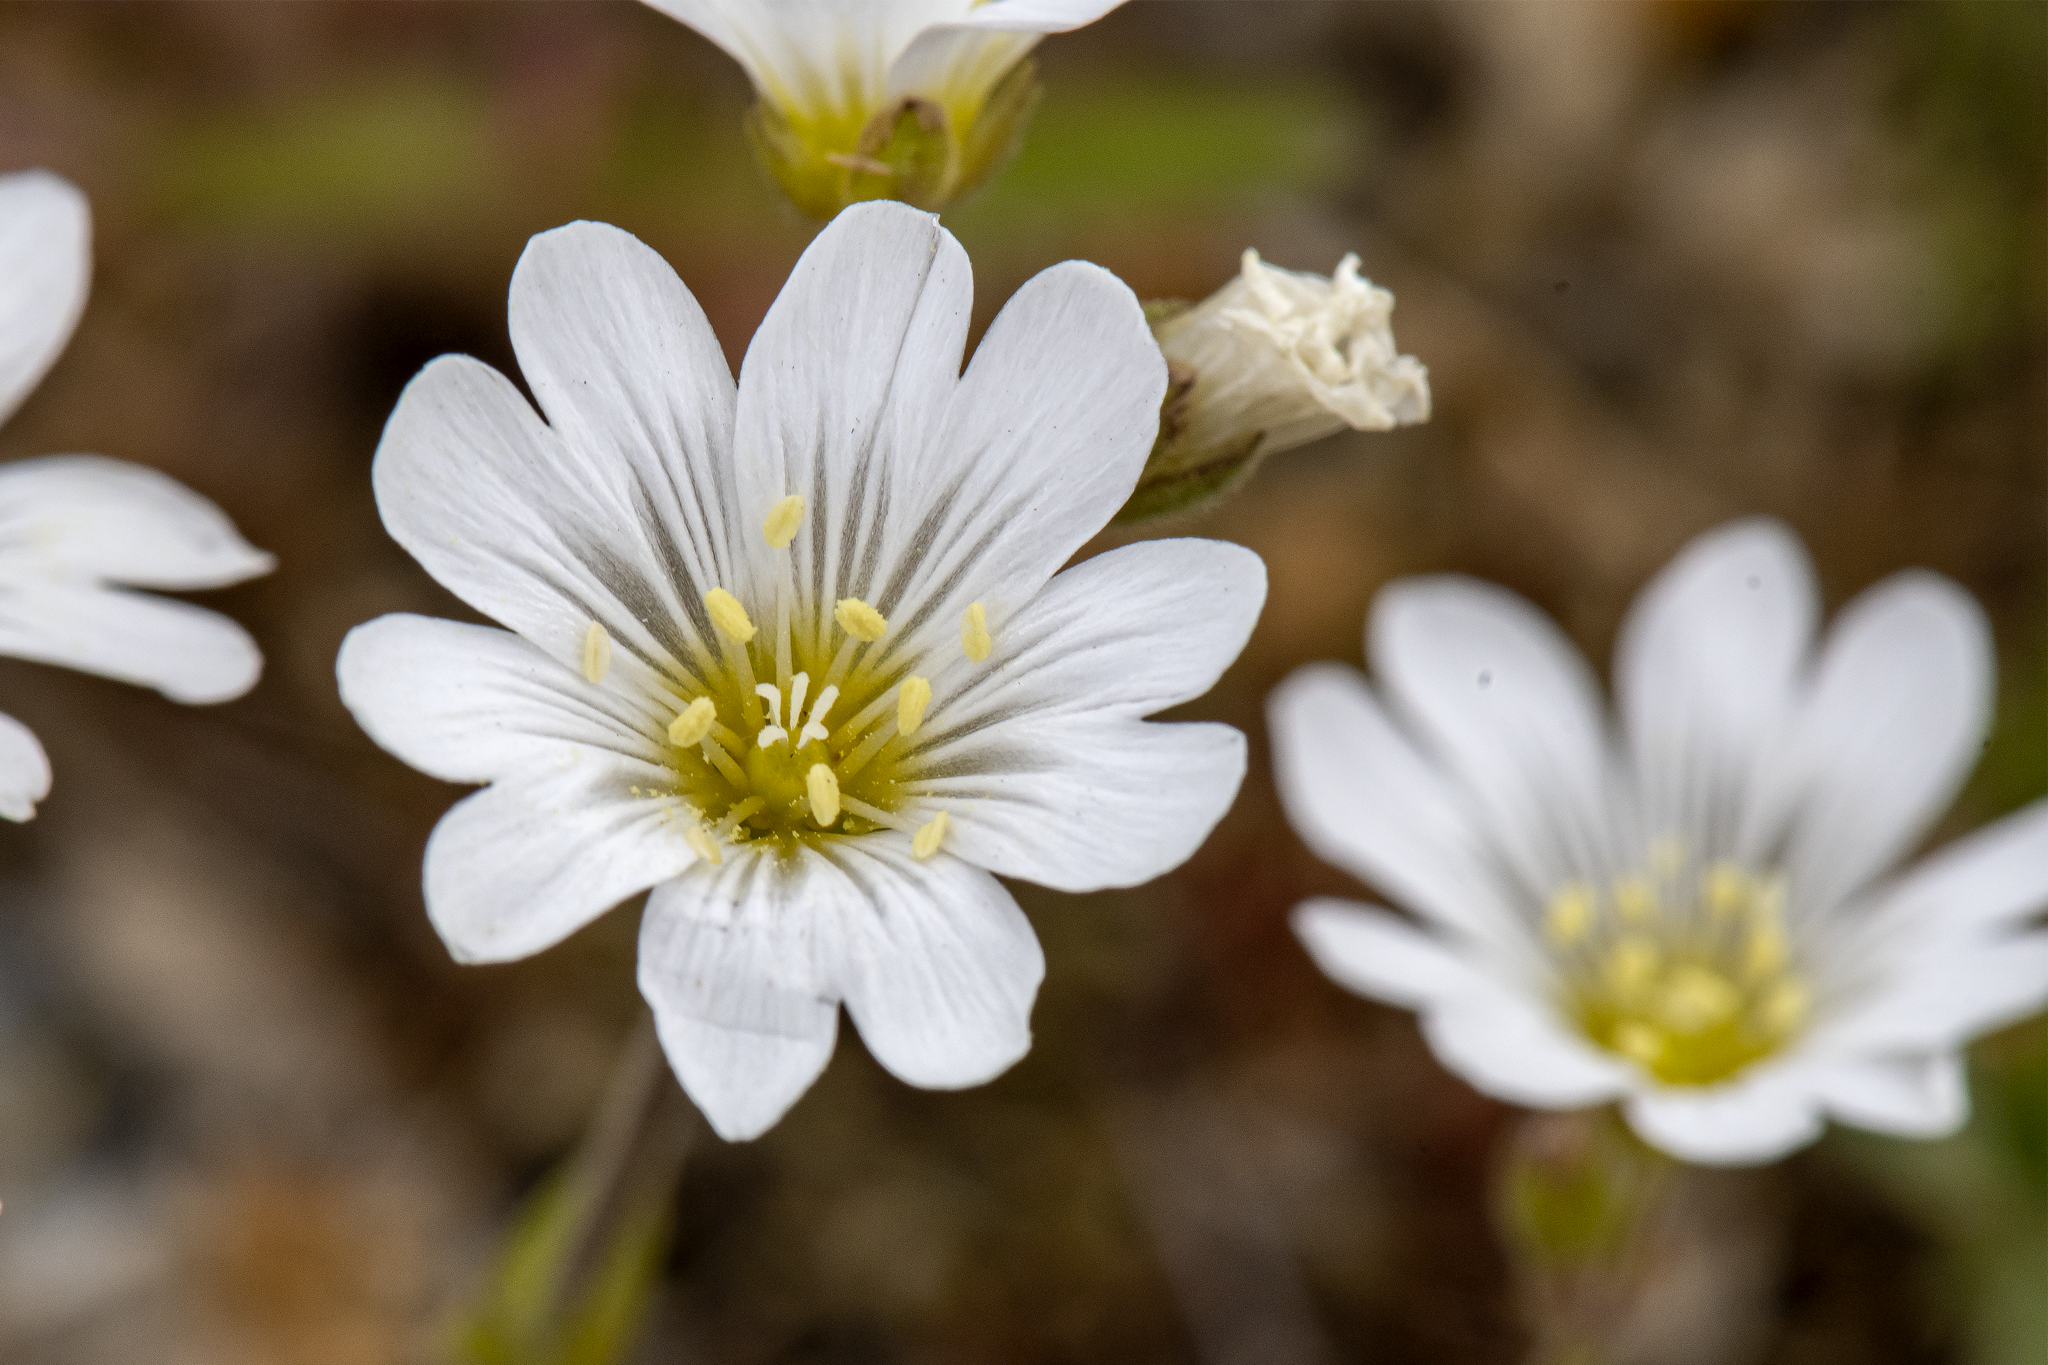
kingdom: Plantae
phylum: Tracheophyta
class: Magnoliopsida
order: Caryophyllales
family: Caryophyllaceae
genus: Cerastium
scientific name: Cerastium arvense
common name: Field mouse-ear
